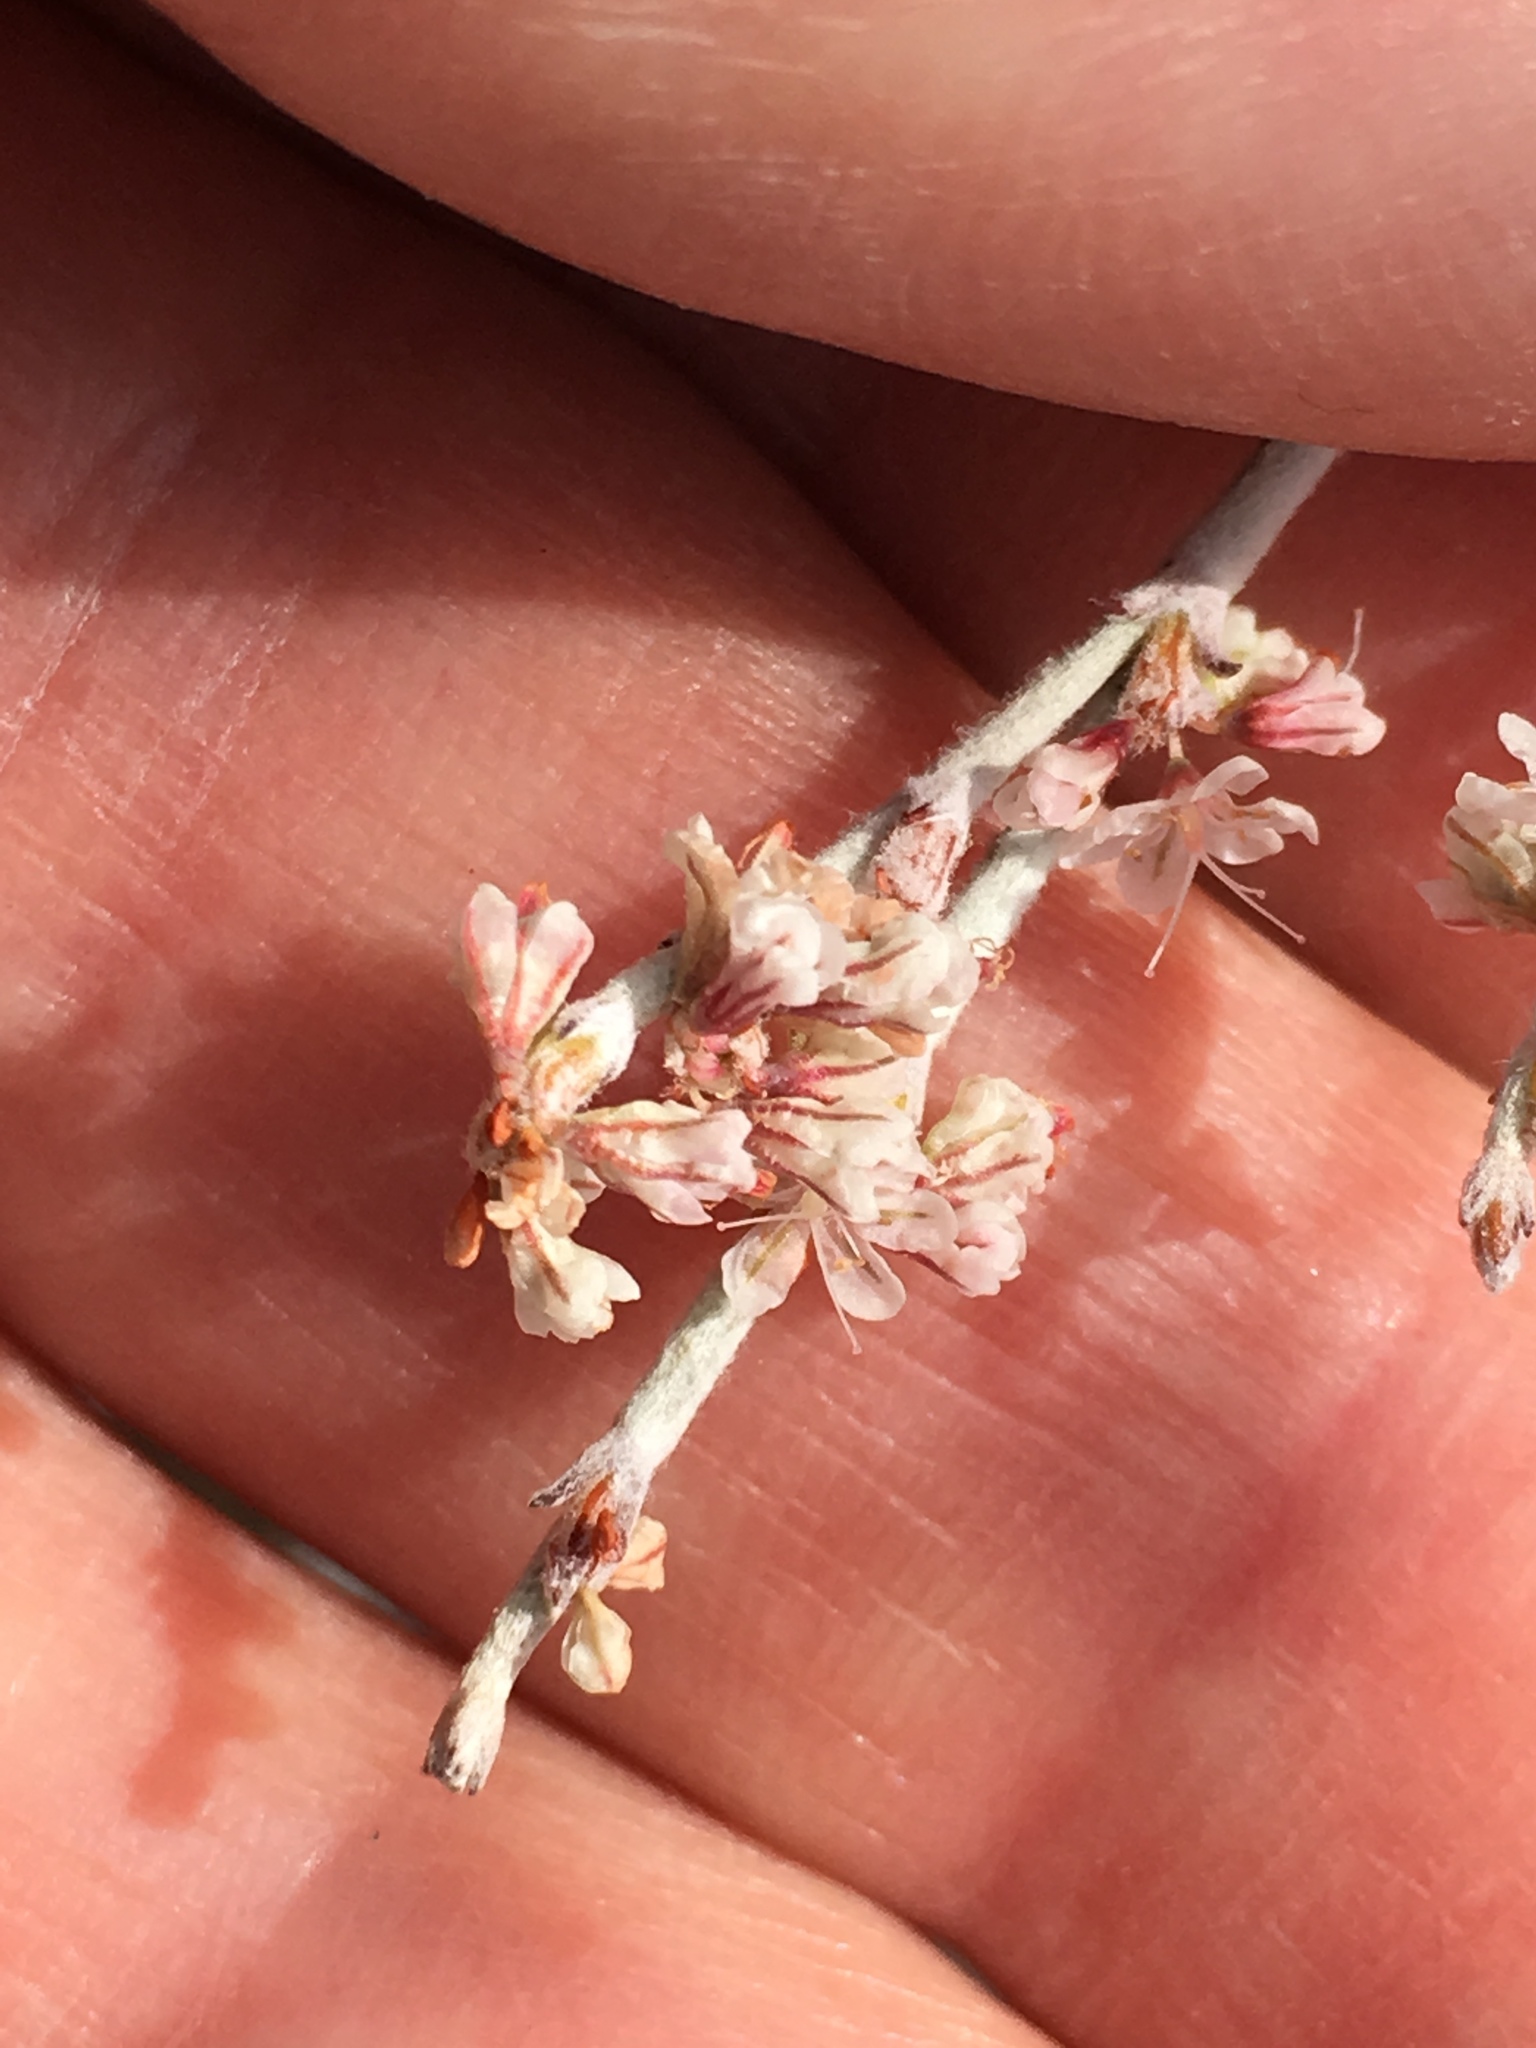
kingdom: Plantae
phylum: Tracheophyta
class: Magnoliopsida
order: Caryophyllales
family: Polygonaceae
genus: Eriogonum
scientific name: Eriogonum wrightii
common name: Bastard-sage
